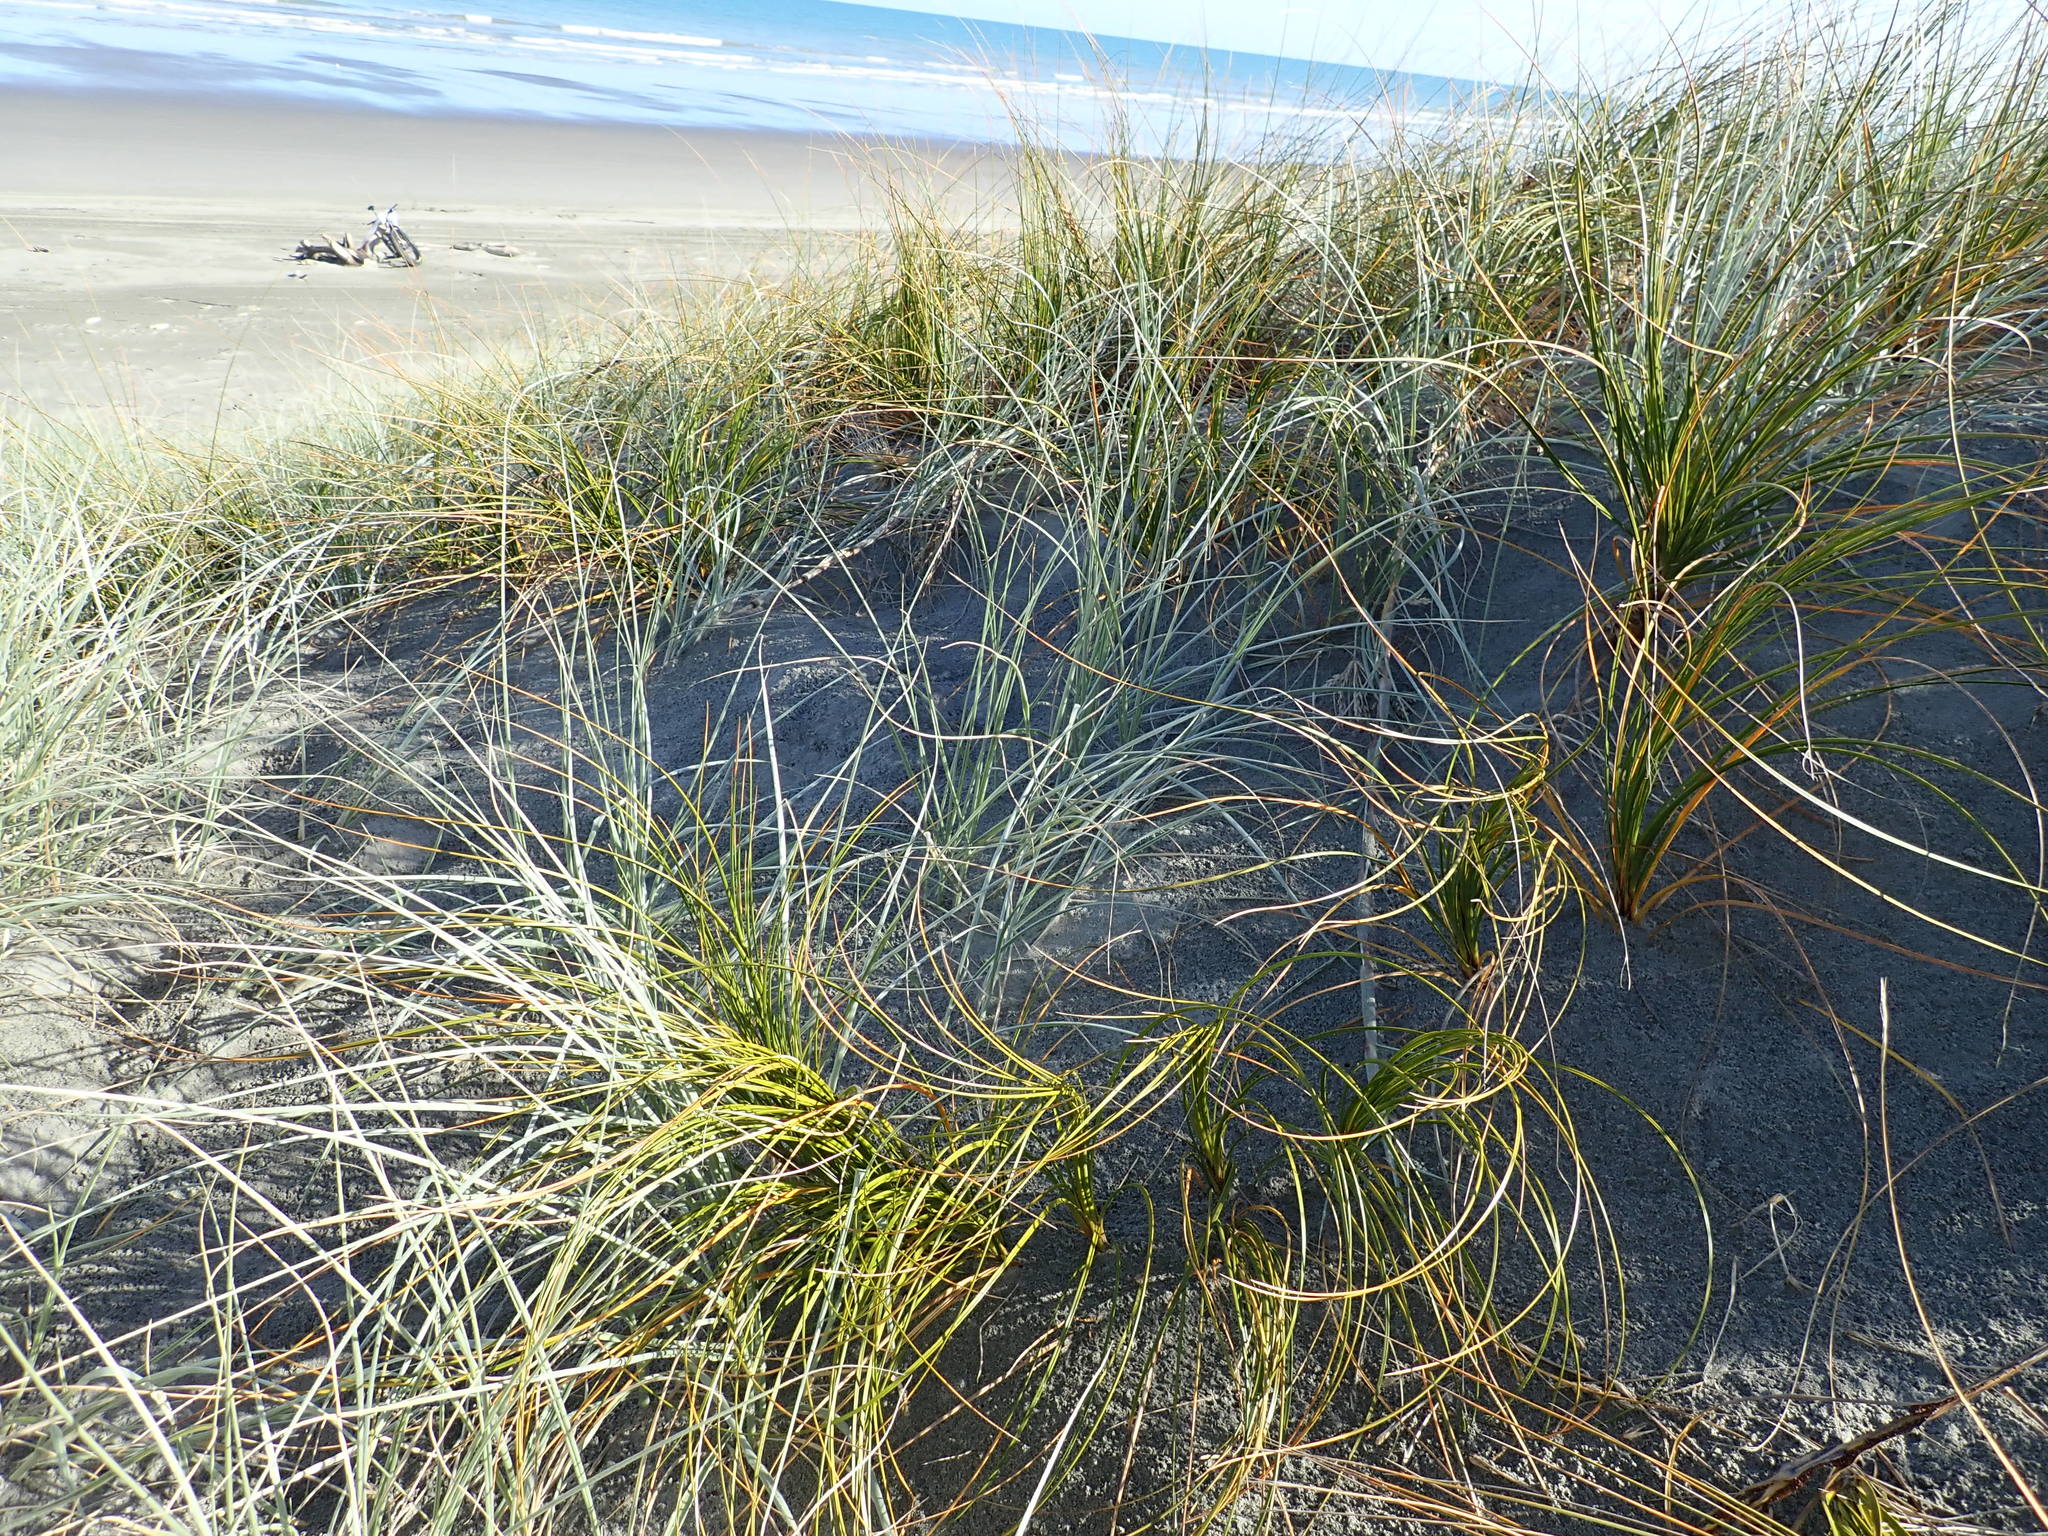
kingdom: Plantae
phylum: Tracheophyta
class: Liliopsida
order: Poales
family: Cyperaceae
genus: Ficinia
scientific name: Ficinia spiralis
